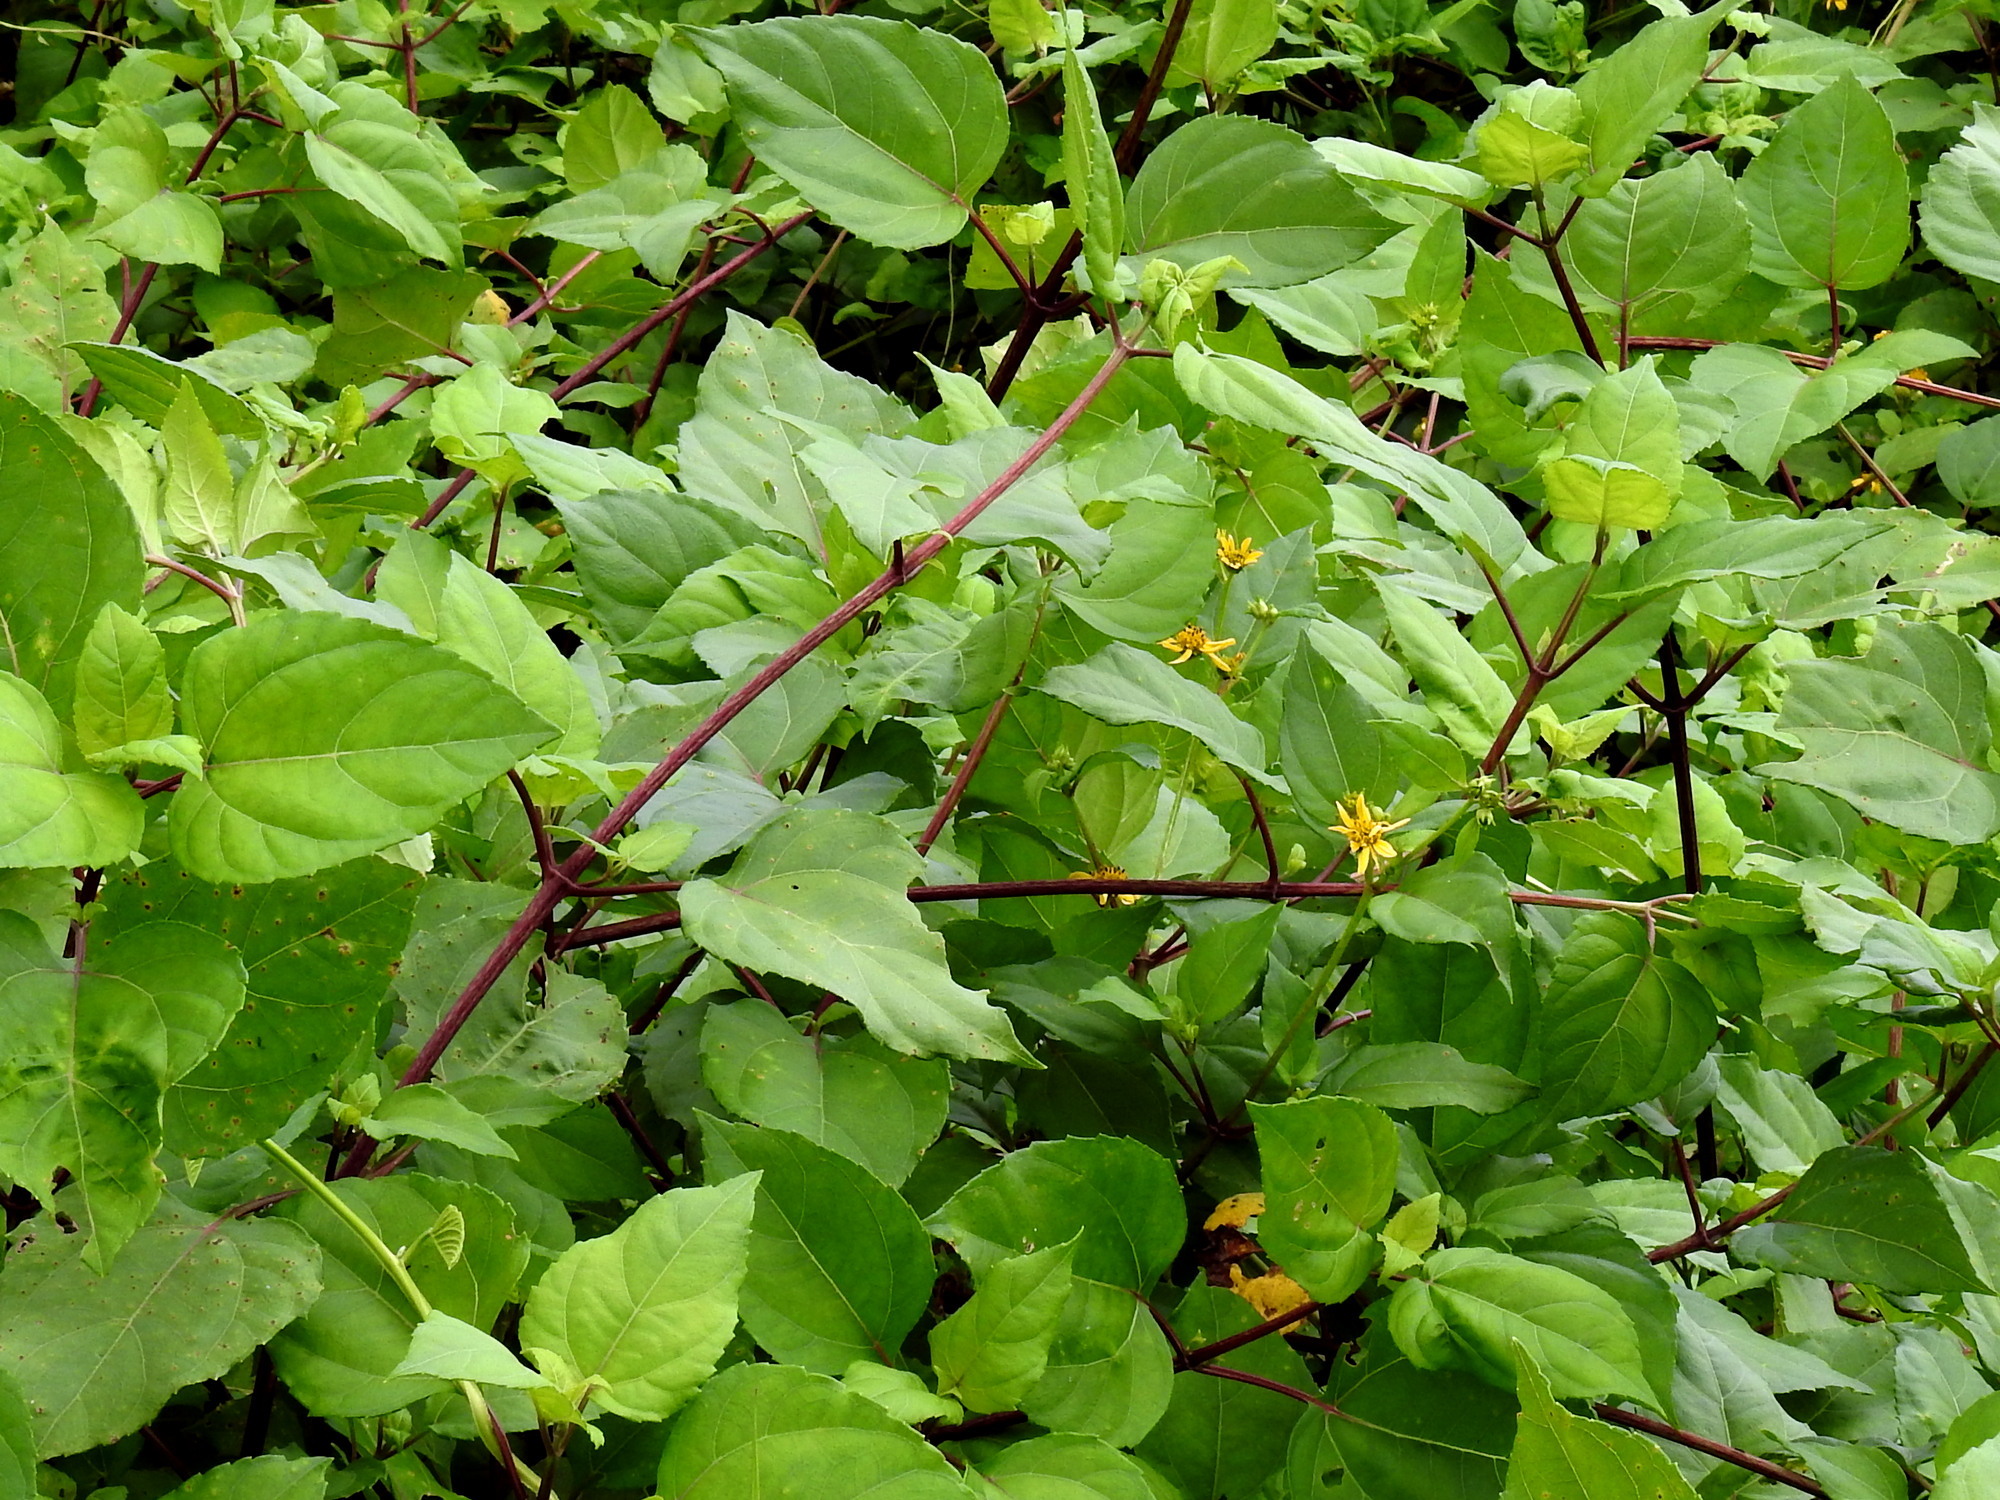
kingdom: Plantae
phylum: Tracheophyta
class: Magnoliopsida
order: Asterales
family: Asteraceae
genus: Wollastonia
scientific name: Wollastonia biflora
